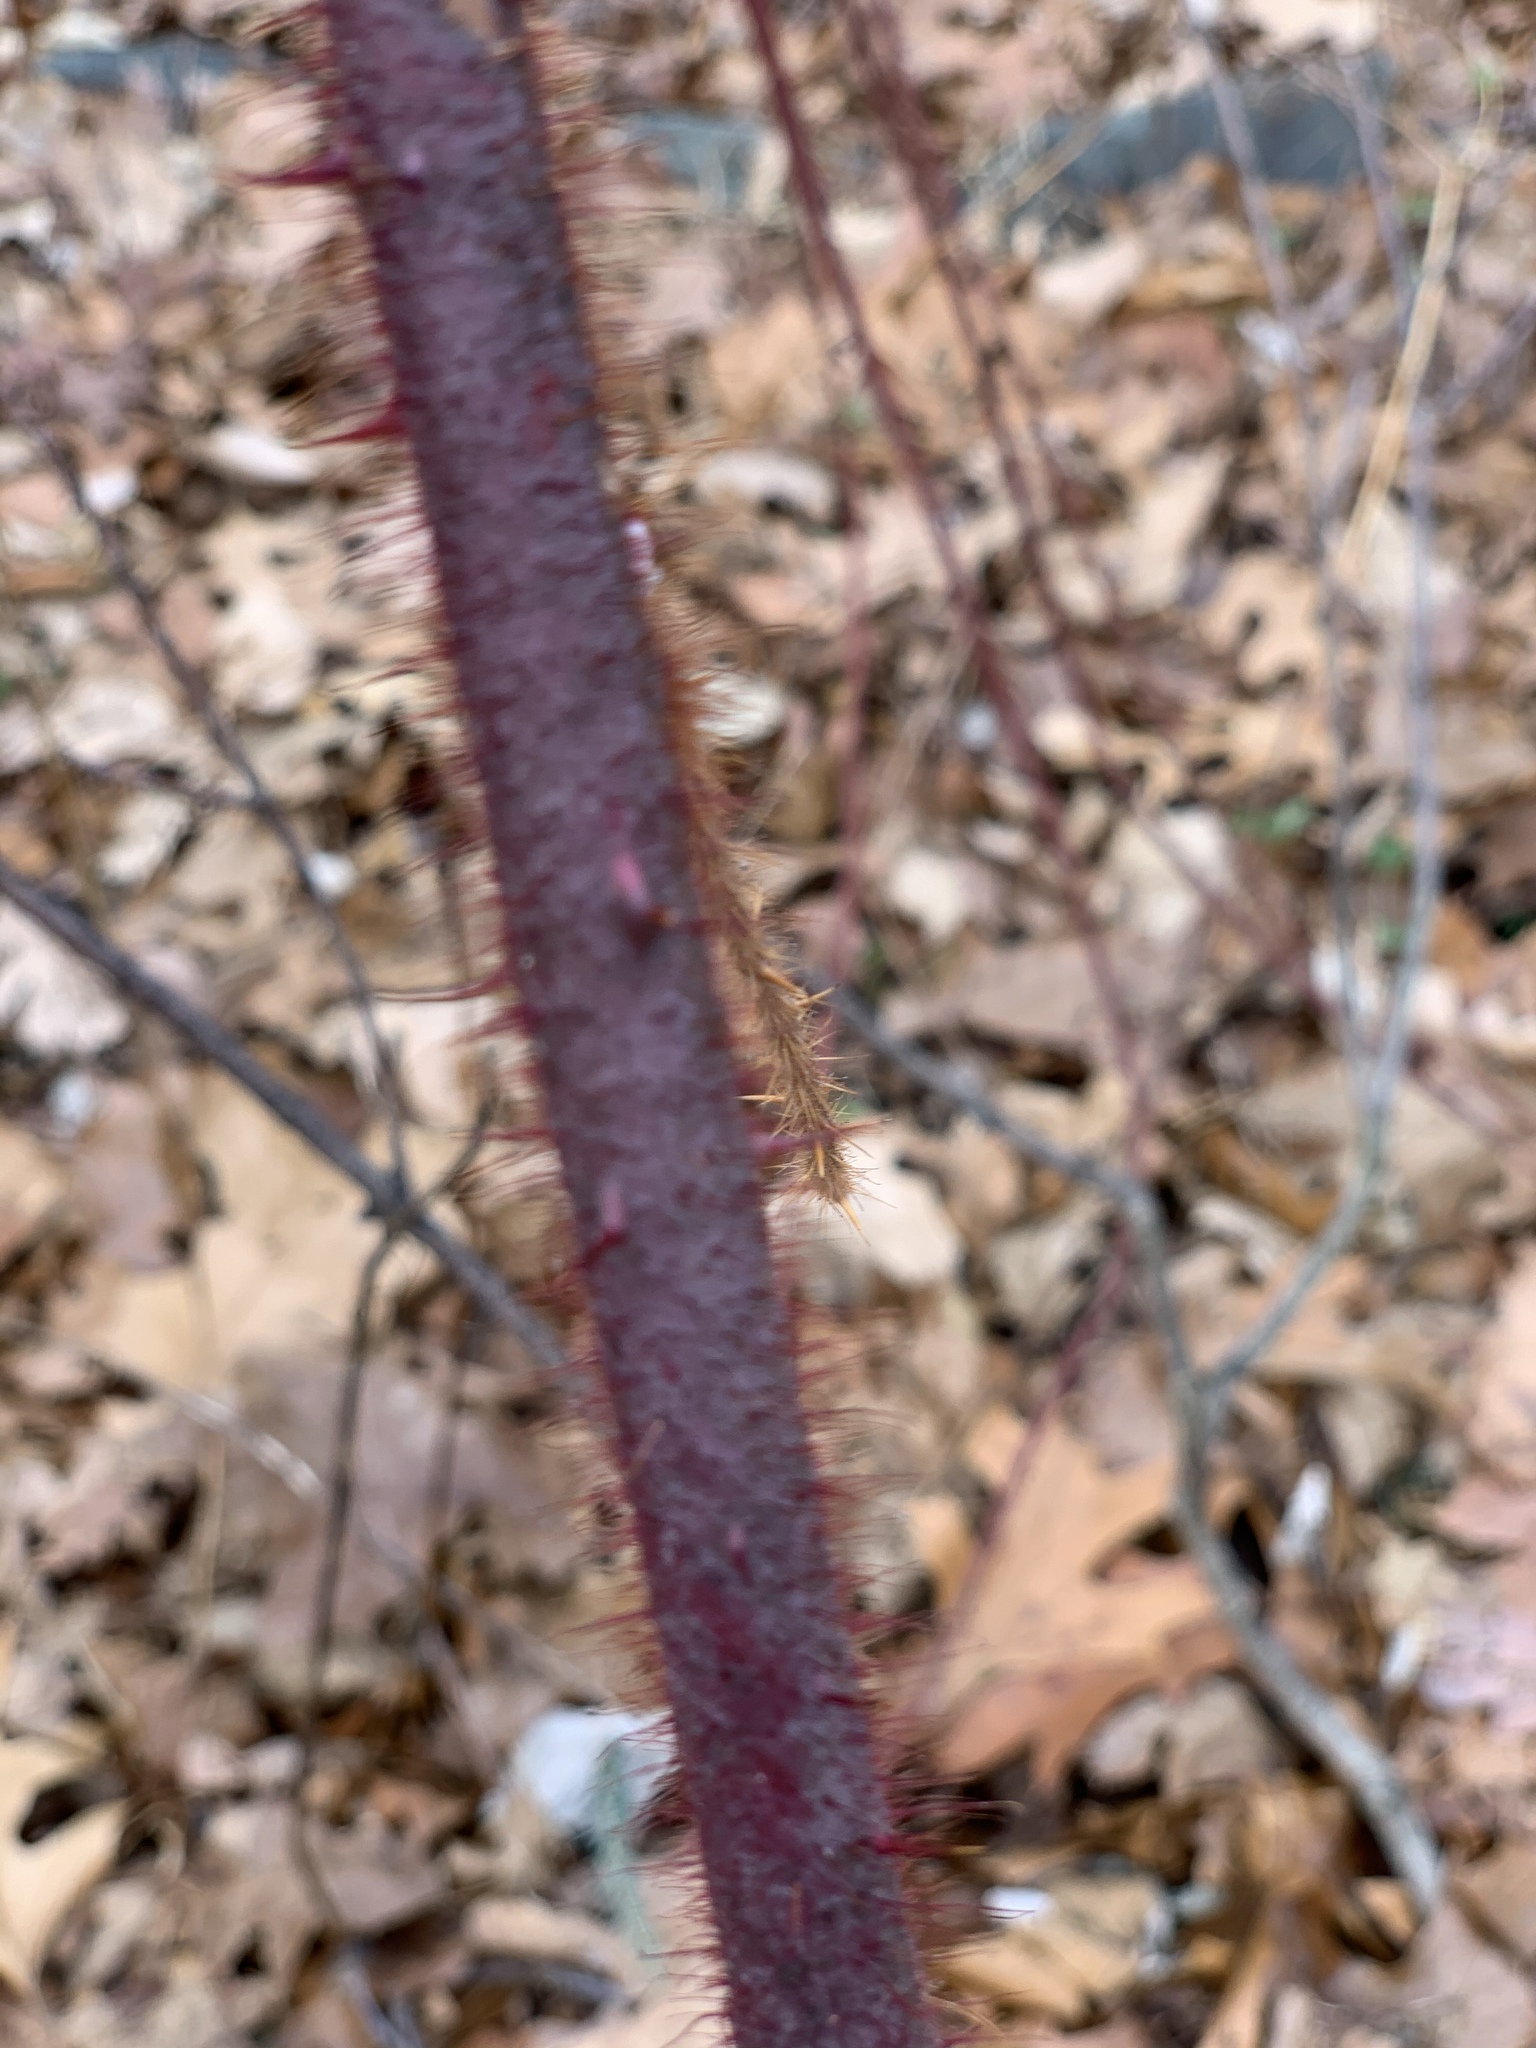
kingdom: Plantae
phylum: Tracheophyta
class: Magnoliopsida
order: Rosales
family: Rosaceae
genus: Rubus
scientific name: Rubus phoenicolasius
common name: Japanese wineberry
